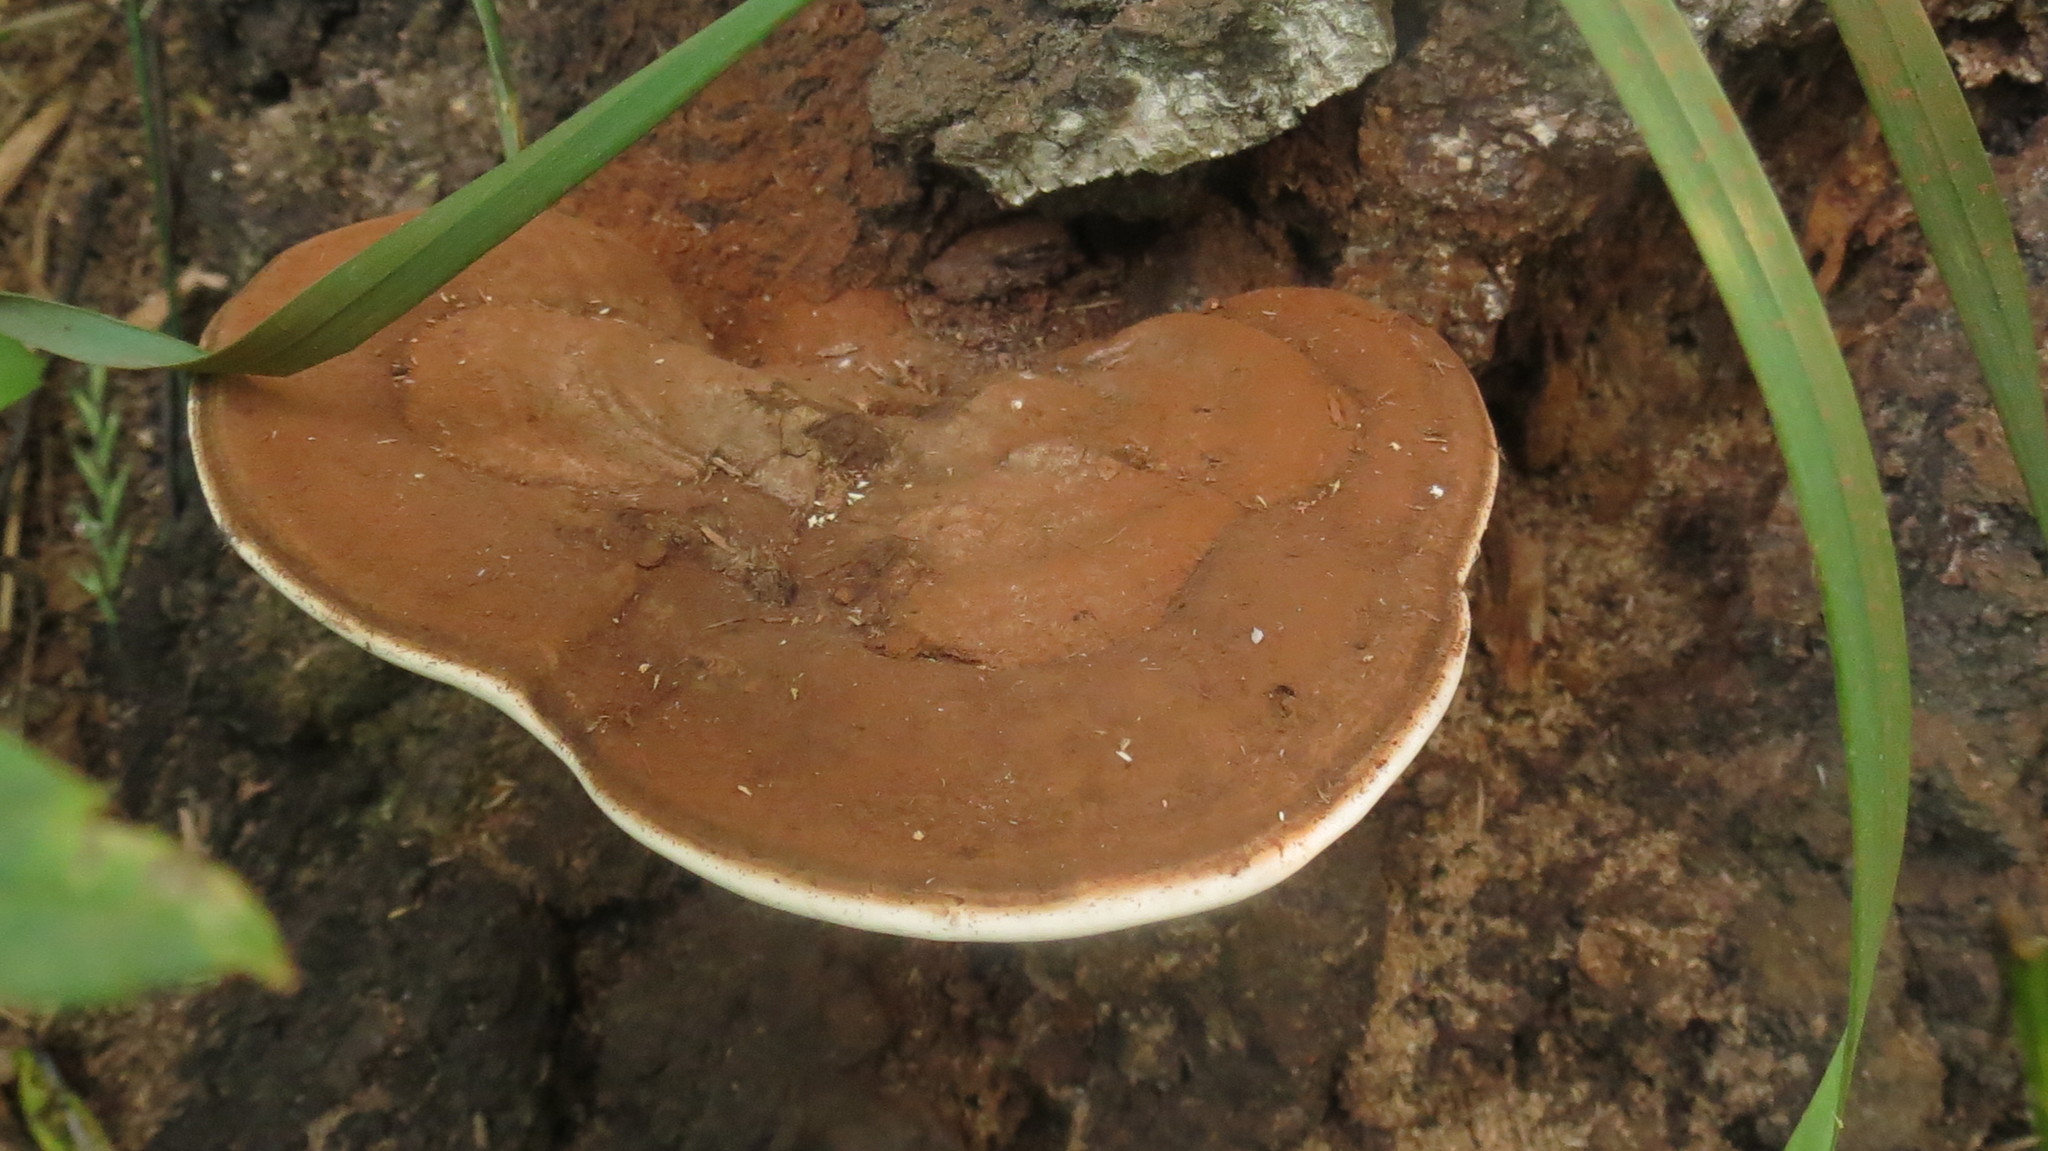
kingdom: Fungi
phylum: Basidiomycota
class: Agaricomycetes
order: Polyporales
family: Polyporaceae
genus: Ganoderma
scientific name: Ganoderma applanatum
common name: Artist's bracket
